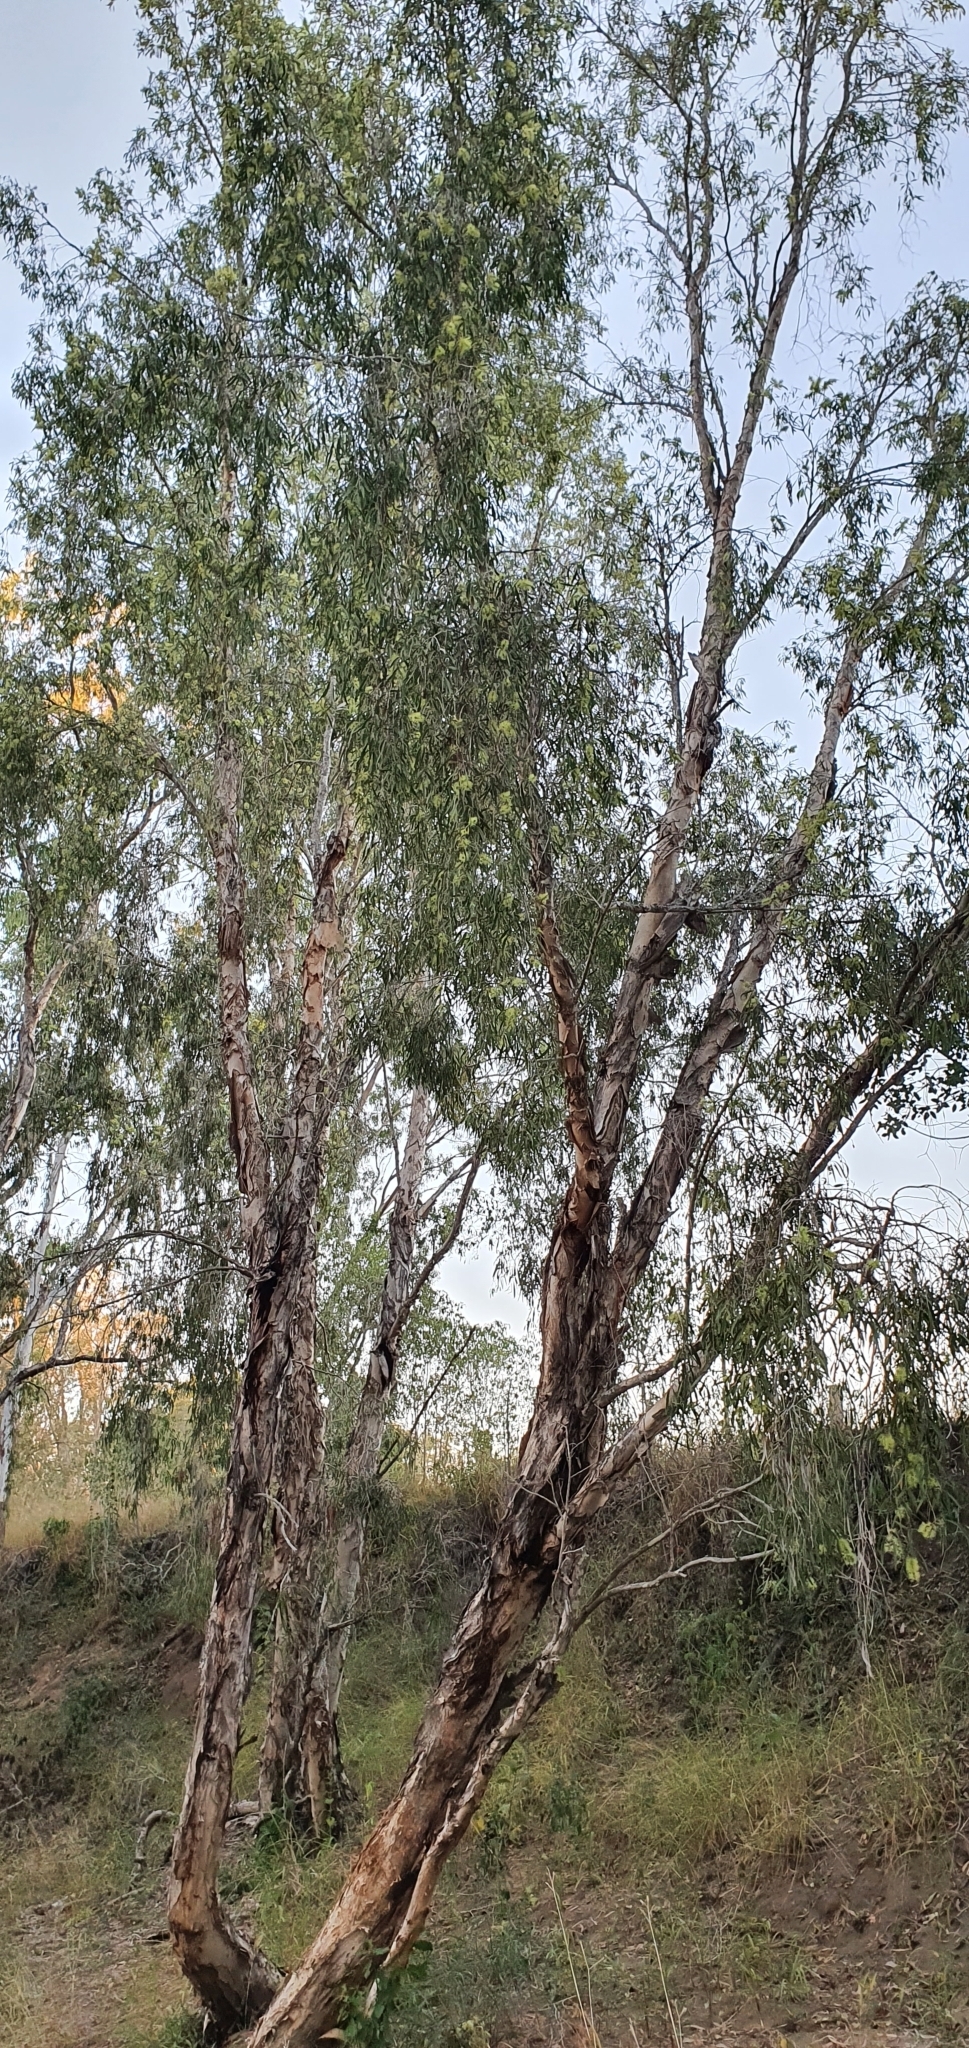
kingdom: Plantae
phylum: Tracheophyta
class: Magnoliopsida
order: Myrtales
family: Myrtaceae
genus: Melaleuca
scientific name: Melaleuca fluviatilis
